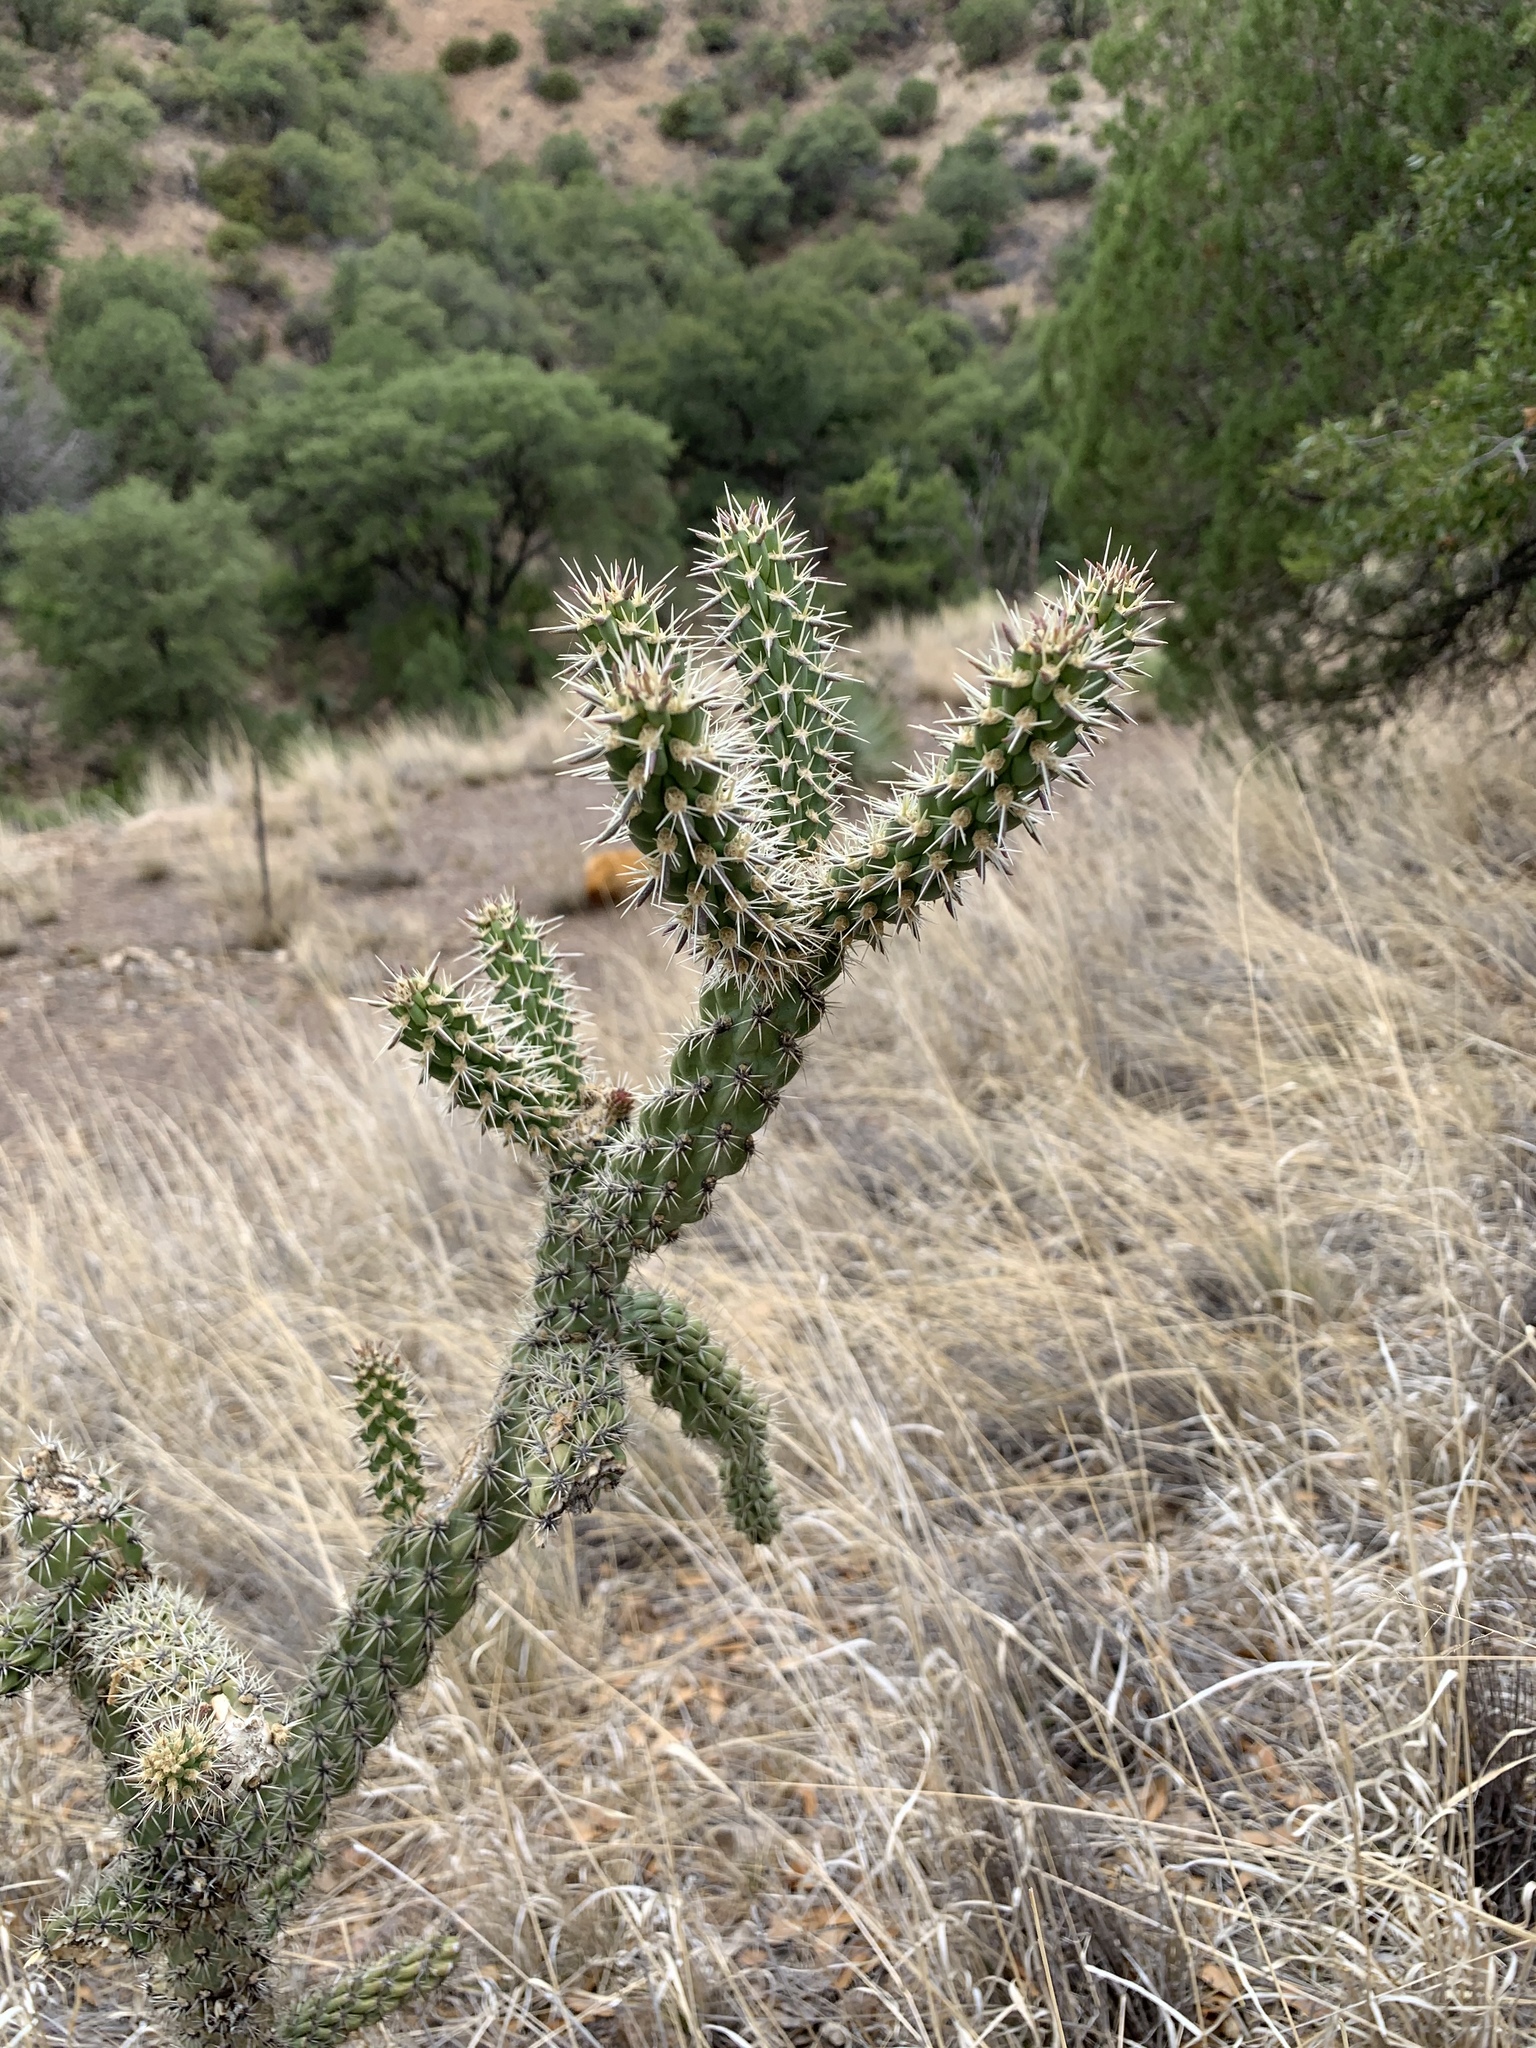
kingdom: Plantae
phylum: Tracheophyta
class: Magnoliopsida
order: Caryophyllales
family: Cactaceae
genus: Cylindropuntia
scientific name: Cylindropuntia imbricata
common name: Candelabrum cactus
